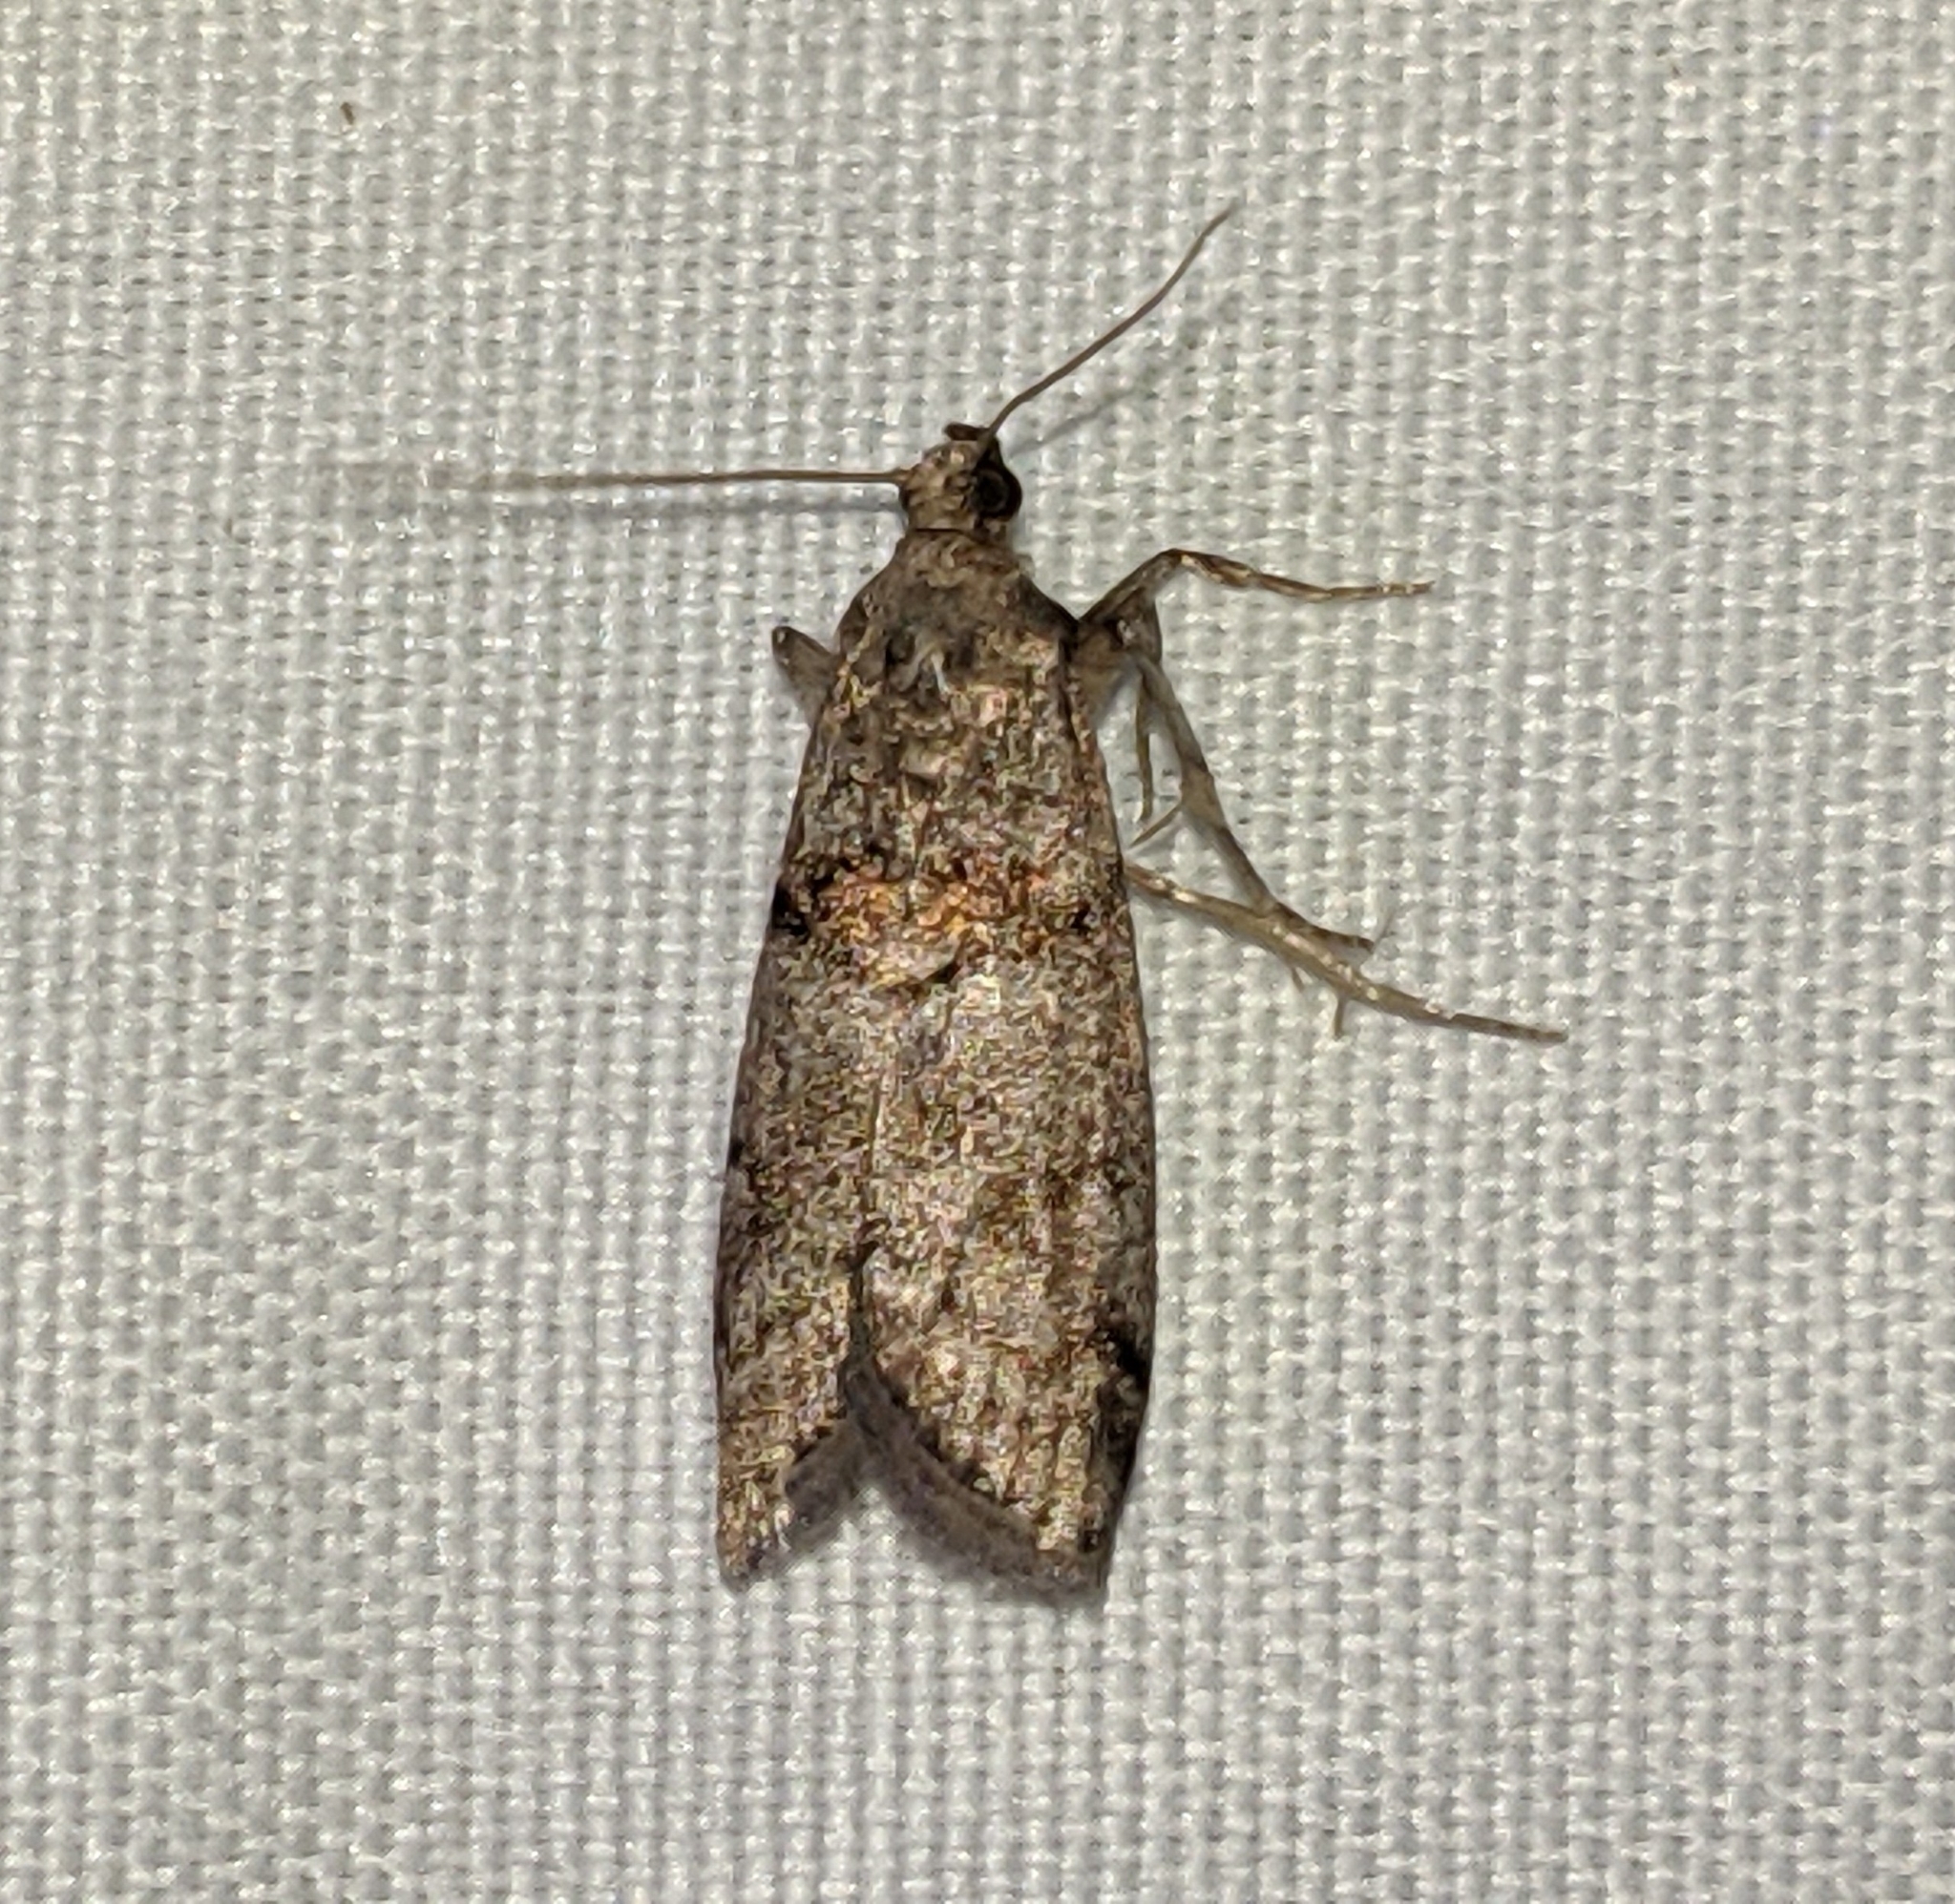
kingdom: Animalia
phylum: Arthropoda
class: Insecta
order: Lepidoptera
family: Pyralidae
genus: Promylea
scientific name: Promylea lunigerella
